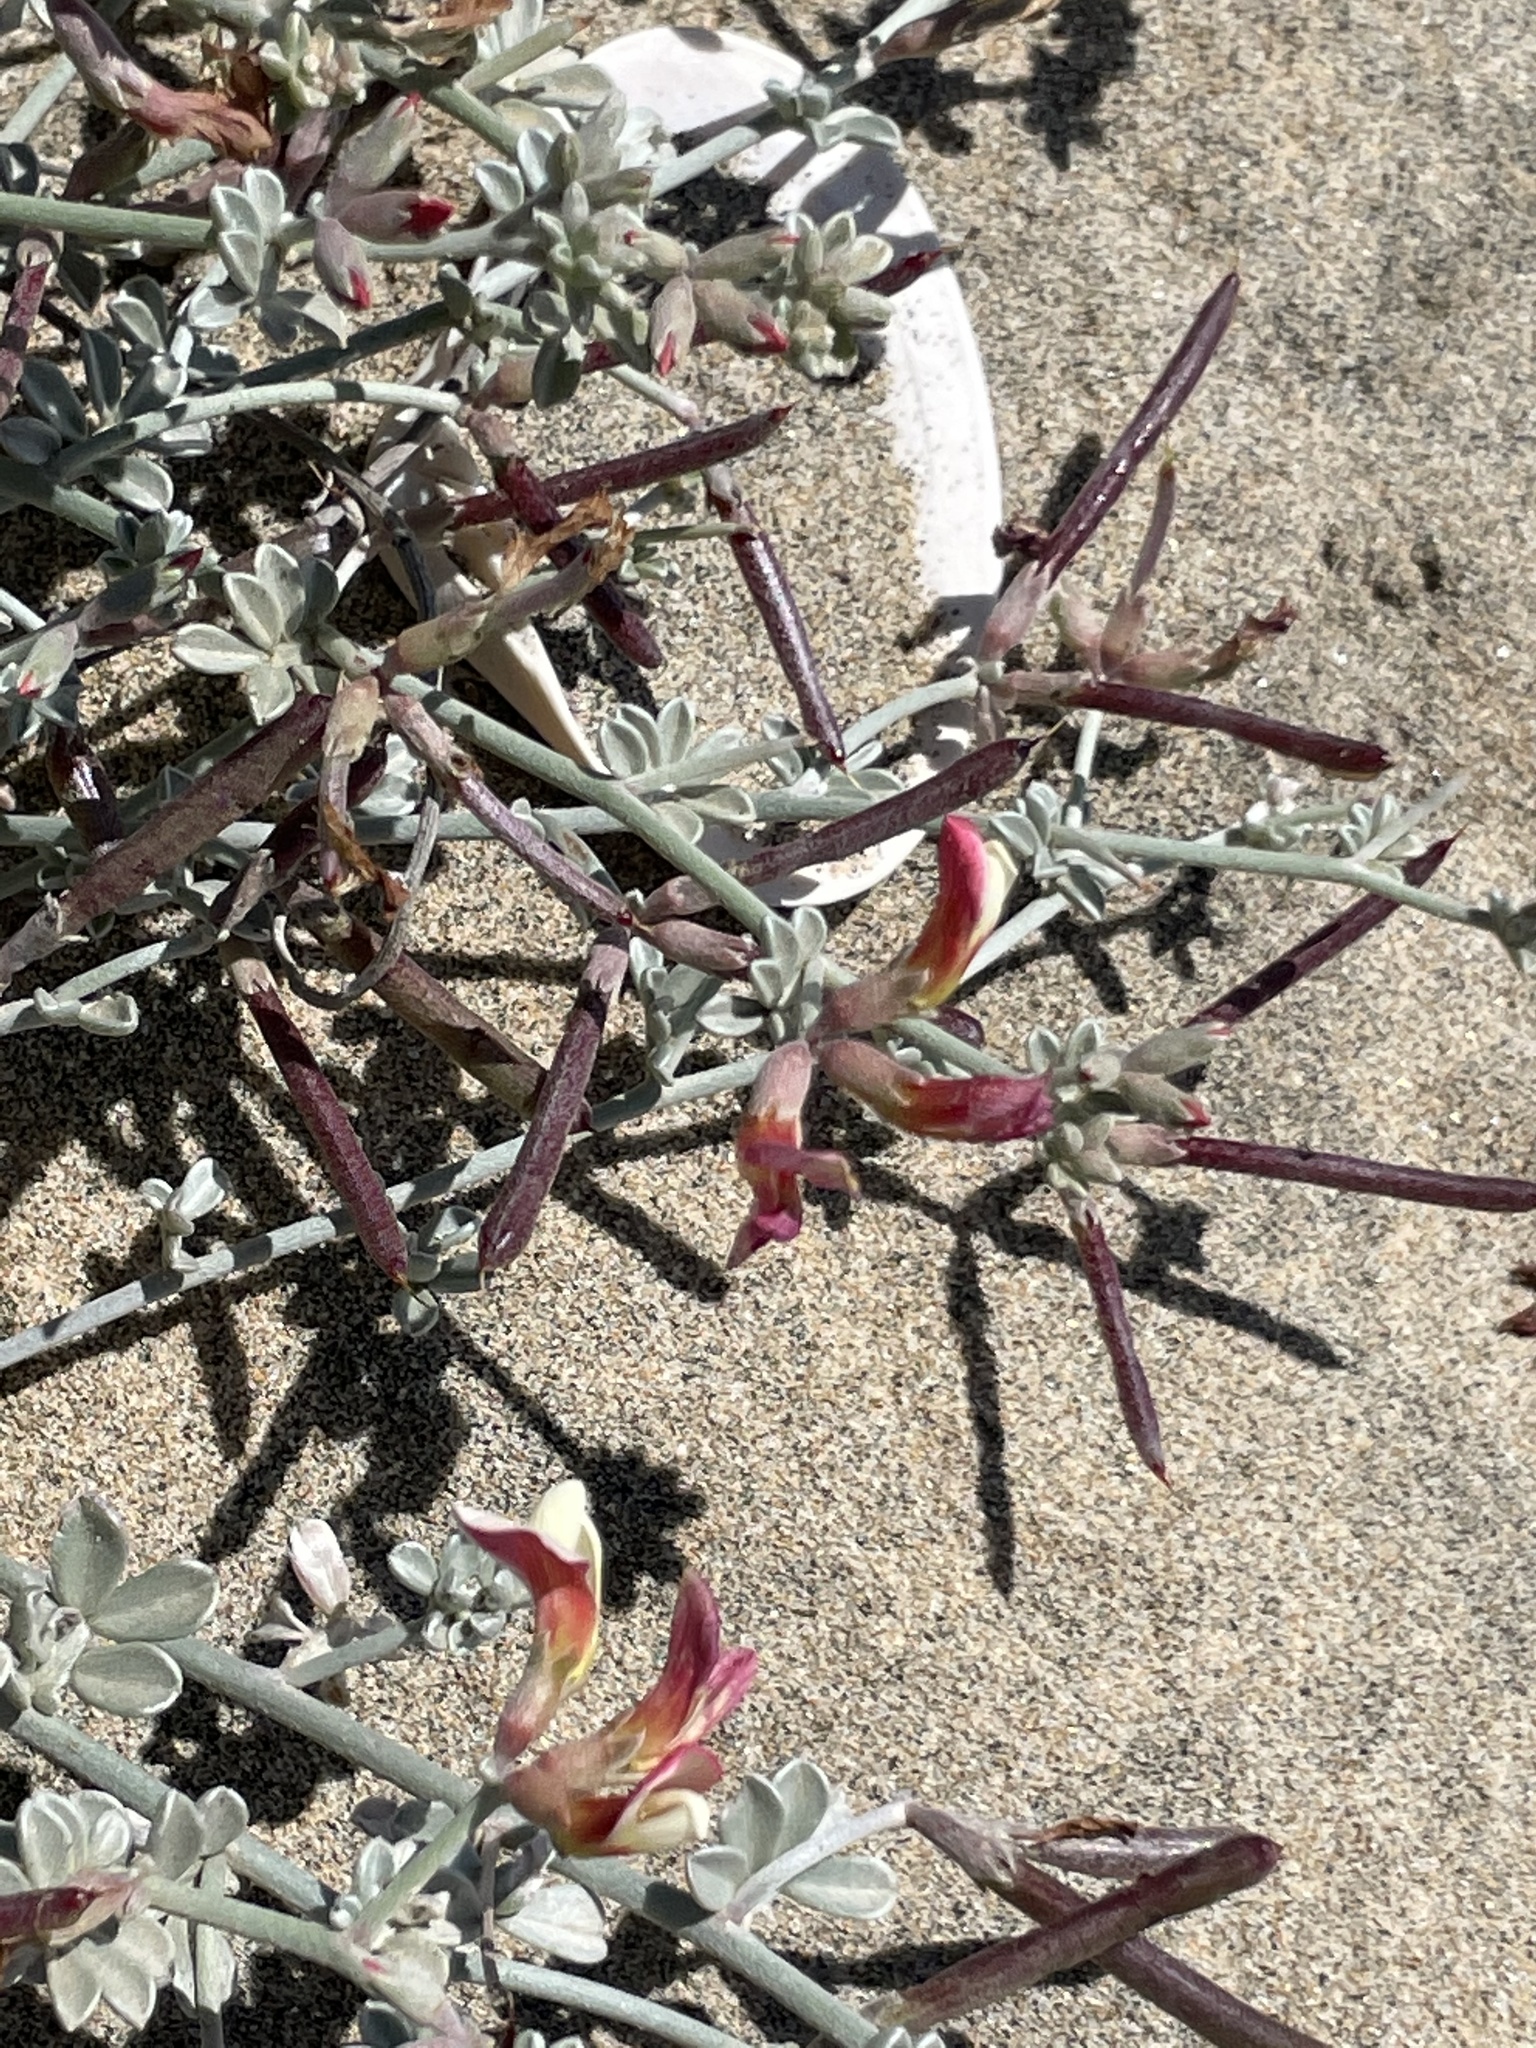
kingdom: Plantae
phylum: Tracheophyta
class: Magnoliopsida
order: Fabales
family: Fabaceae
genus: Acmispon
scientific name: Acmispon niveus
